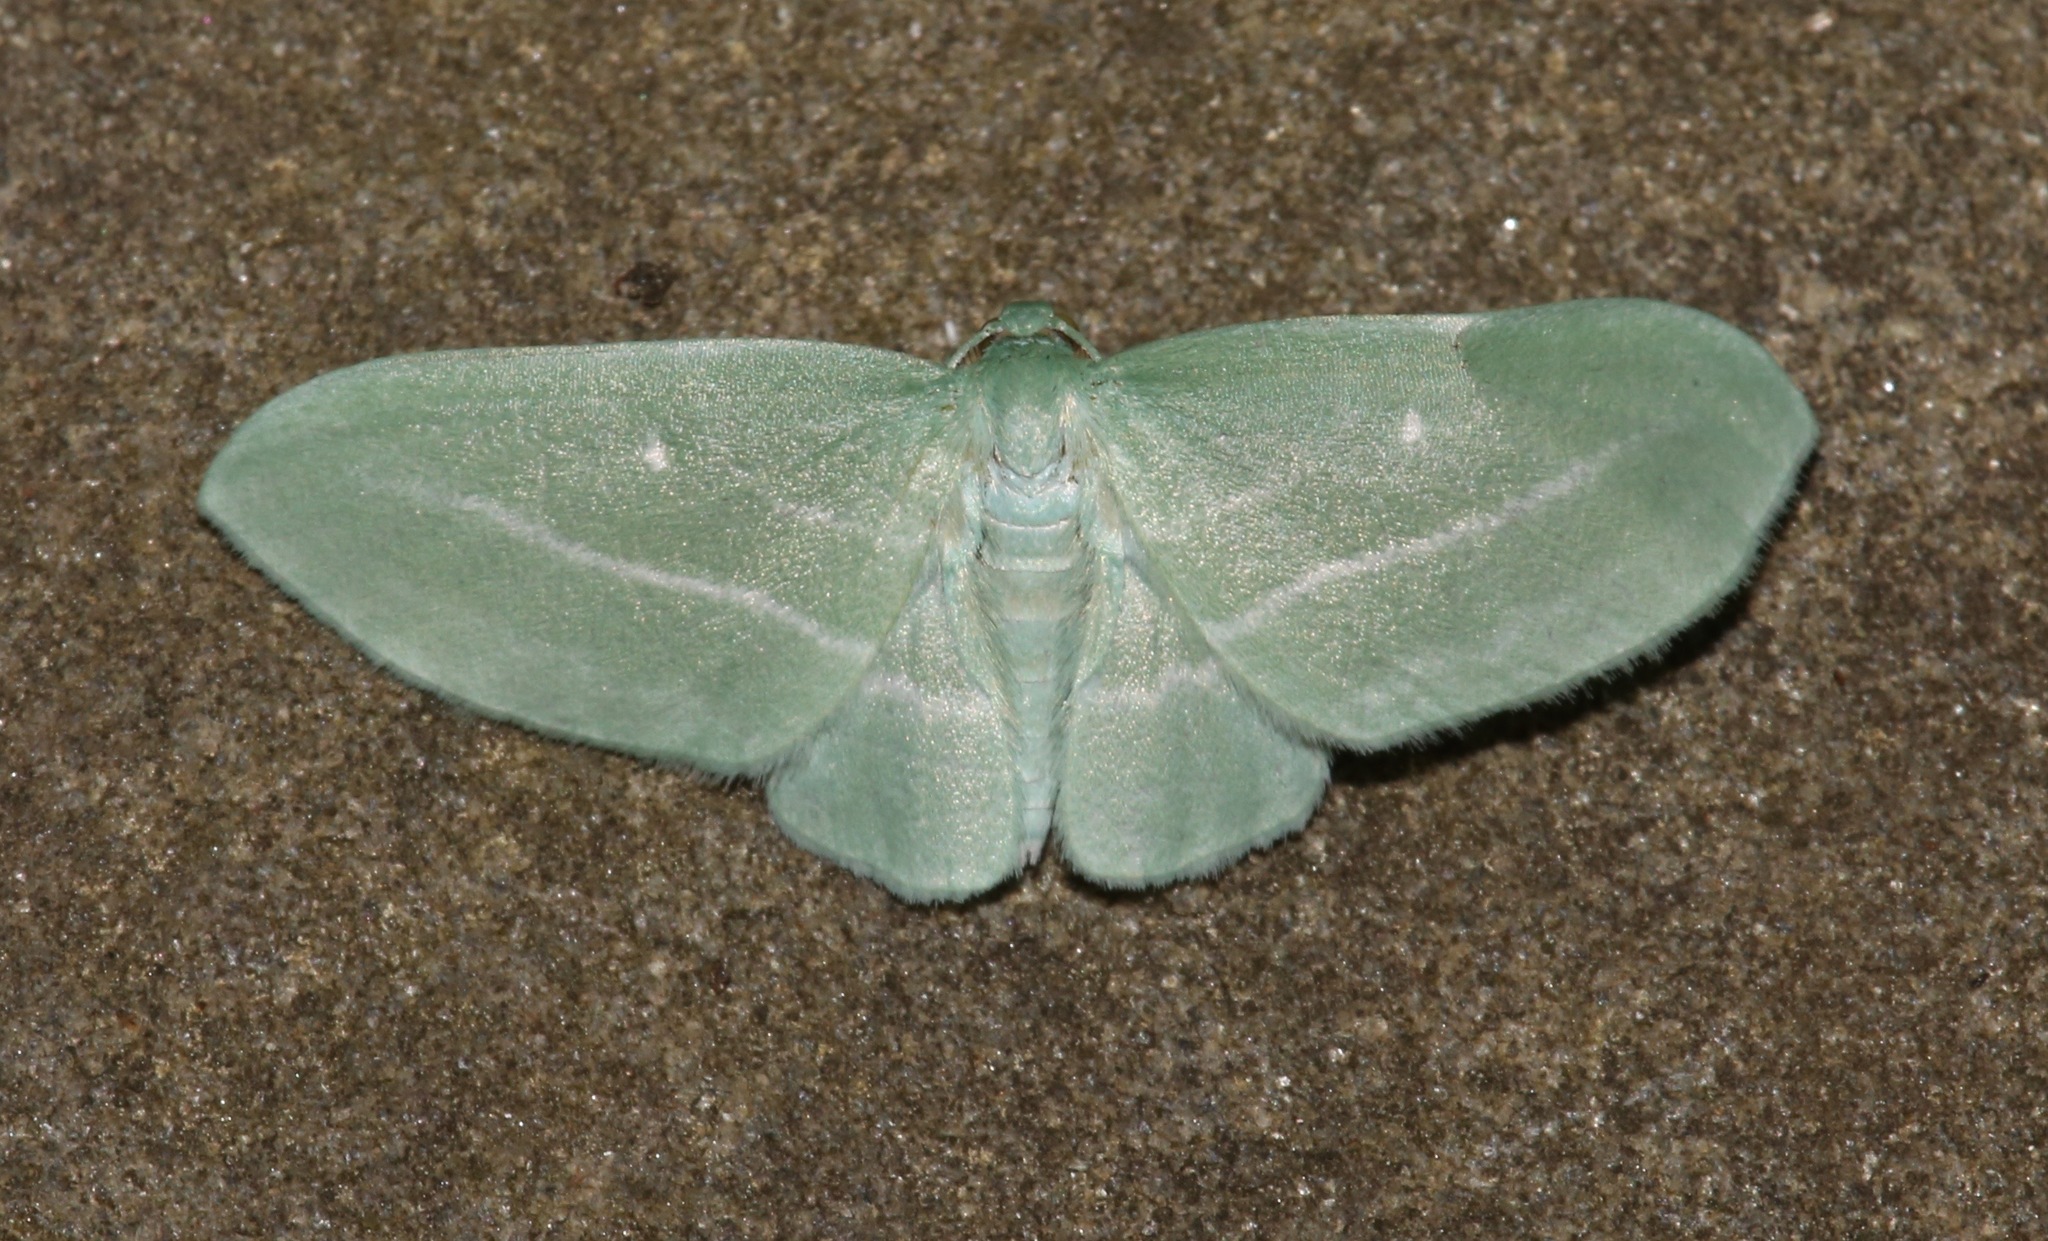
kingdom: Animalia
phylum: Arthropoda
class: Insecta
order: Lepidoptera
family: Geometridae
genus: Dyspteris
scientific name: Dyspteris abortivaria
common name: Bad-wing
